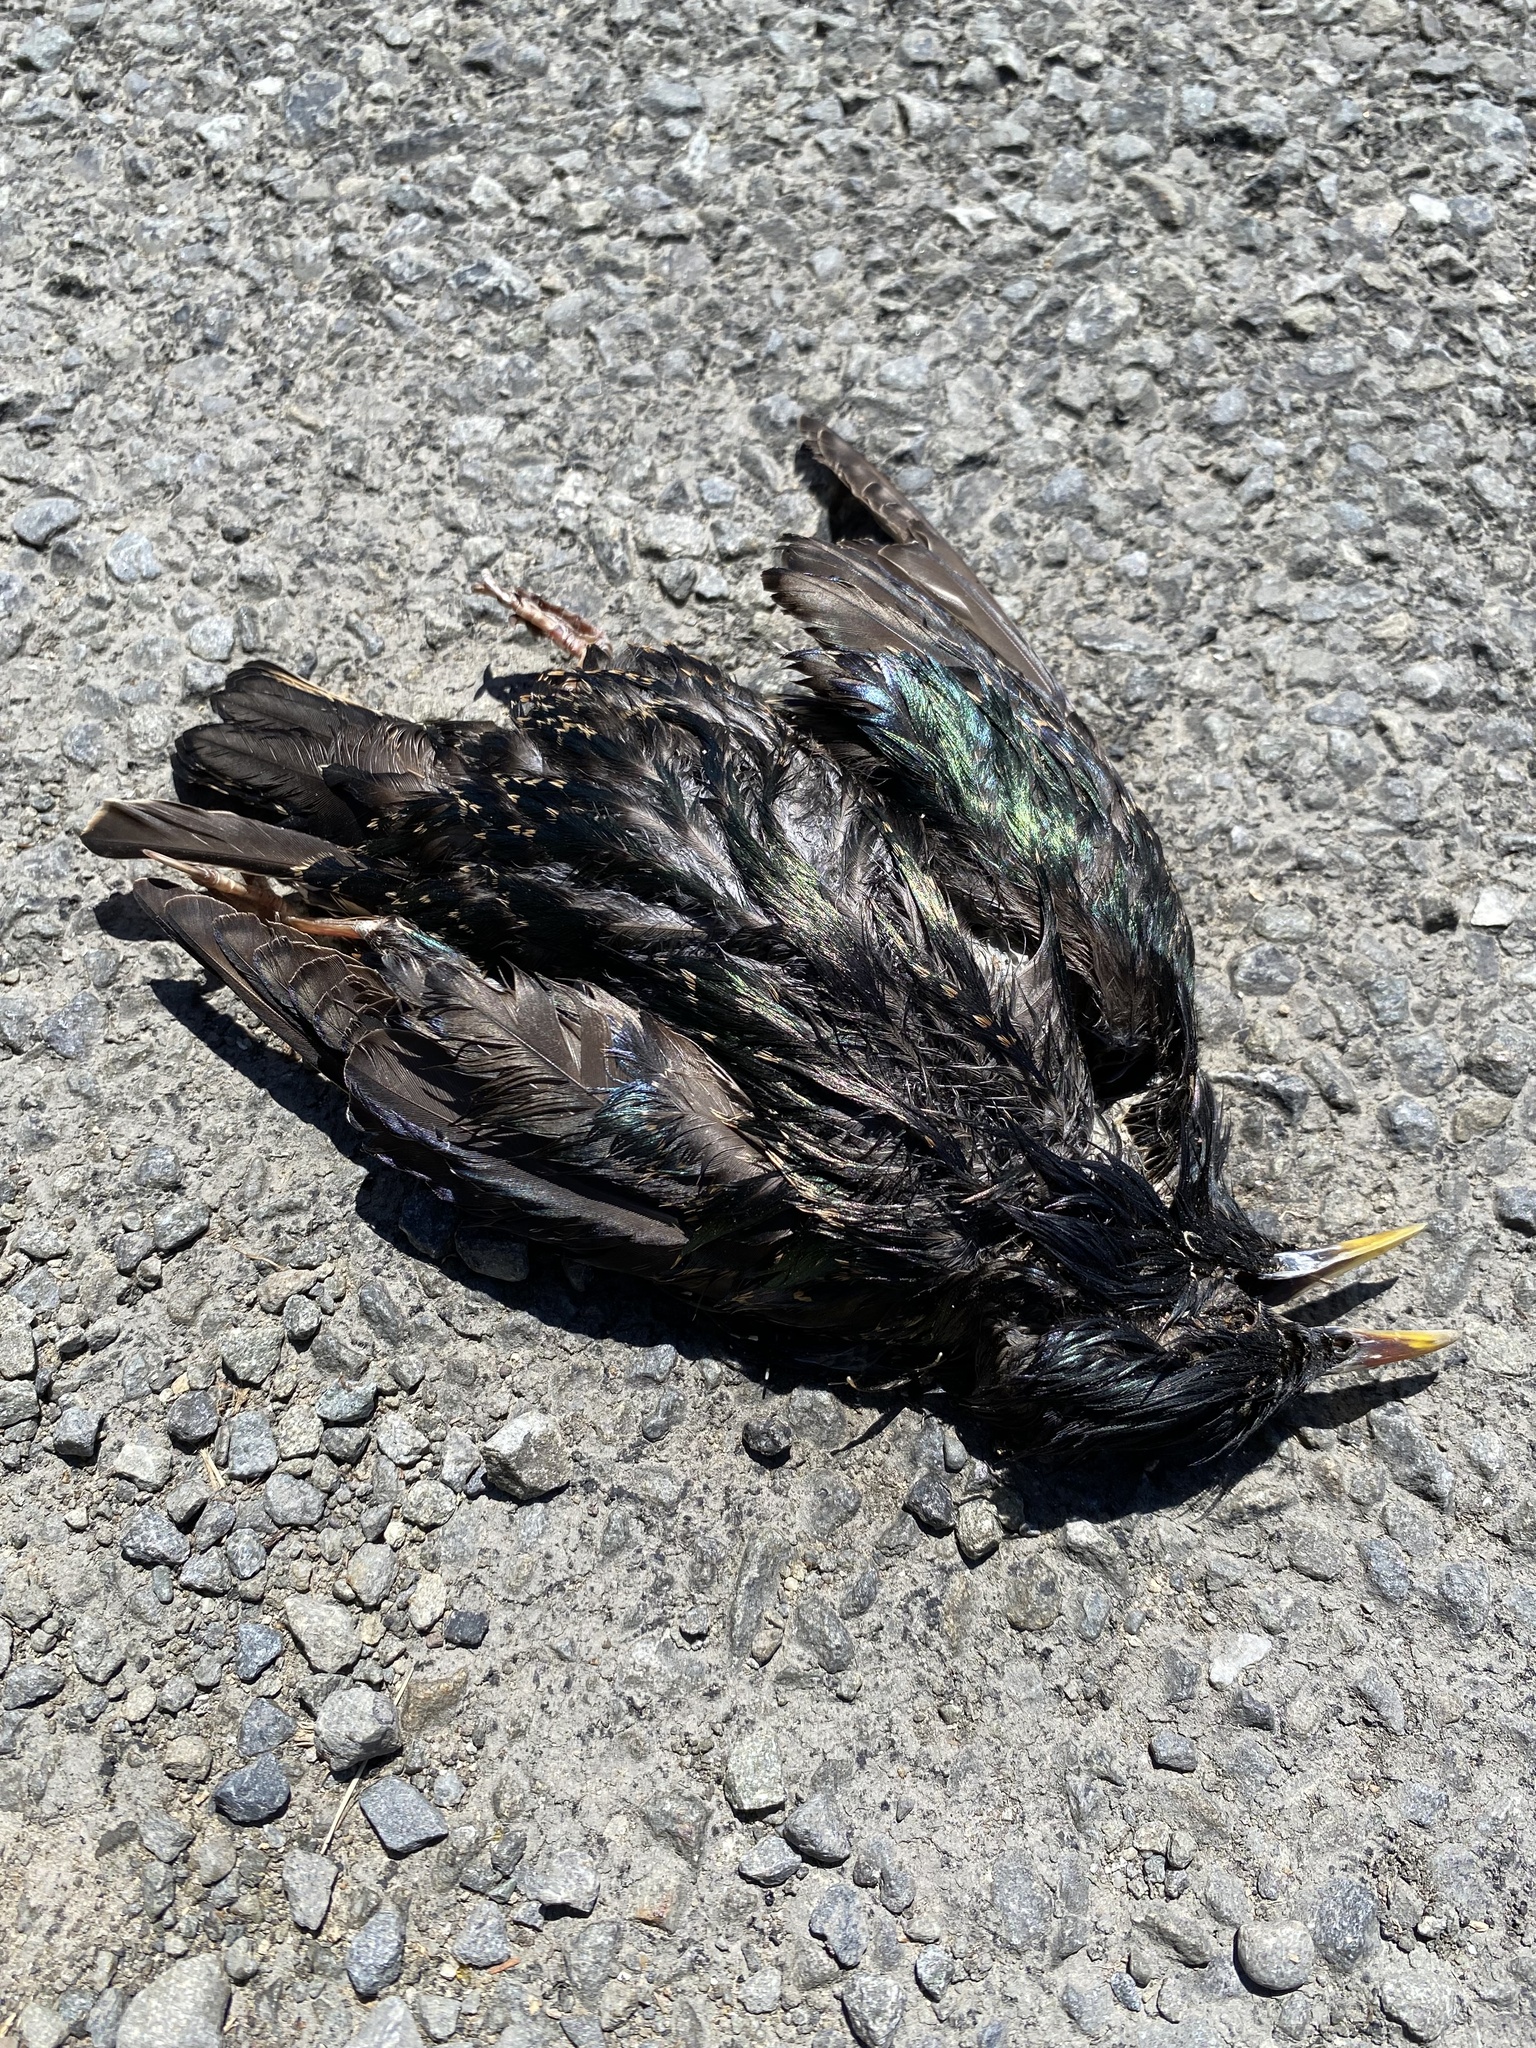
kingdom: Animalia
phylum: Chordata
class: Aves
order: Passeriformes
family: Sturnidae
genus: Sturnus
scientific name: Sturnus vulgaris
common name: Common starling
